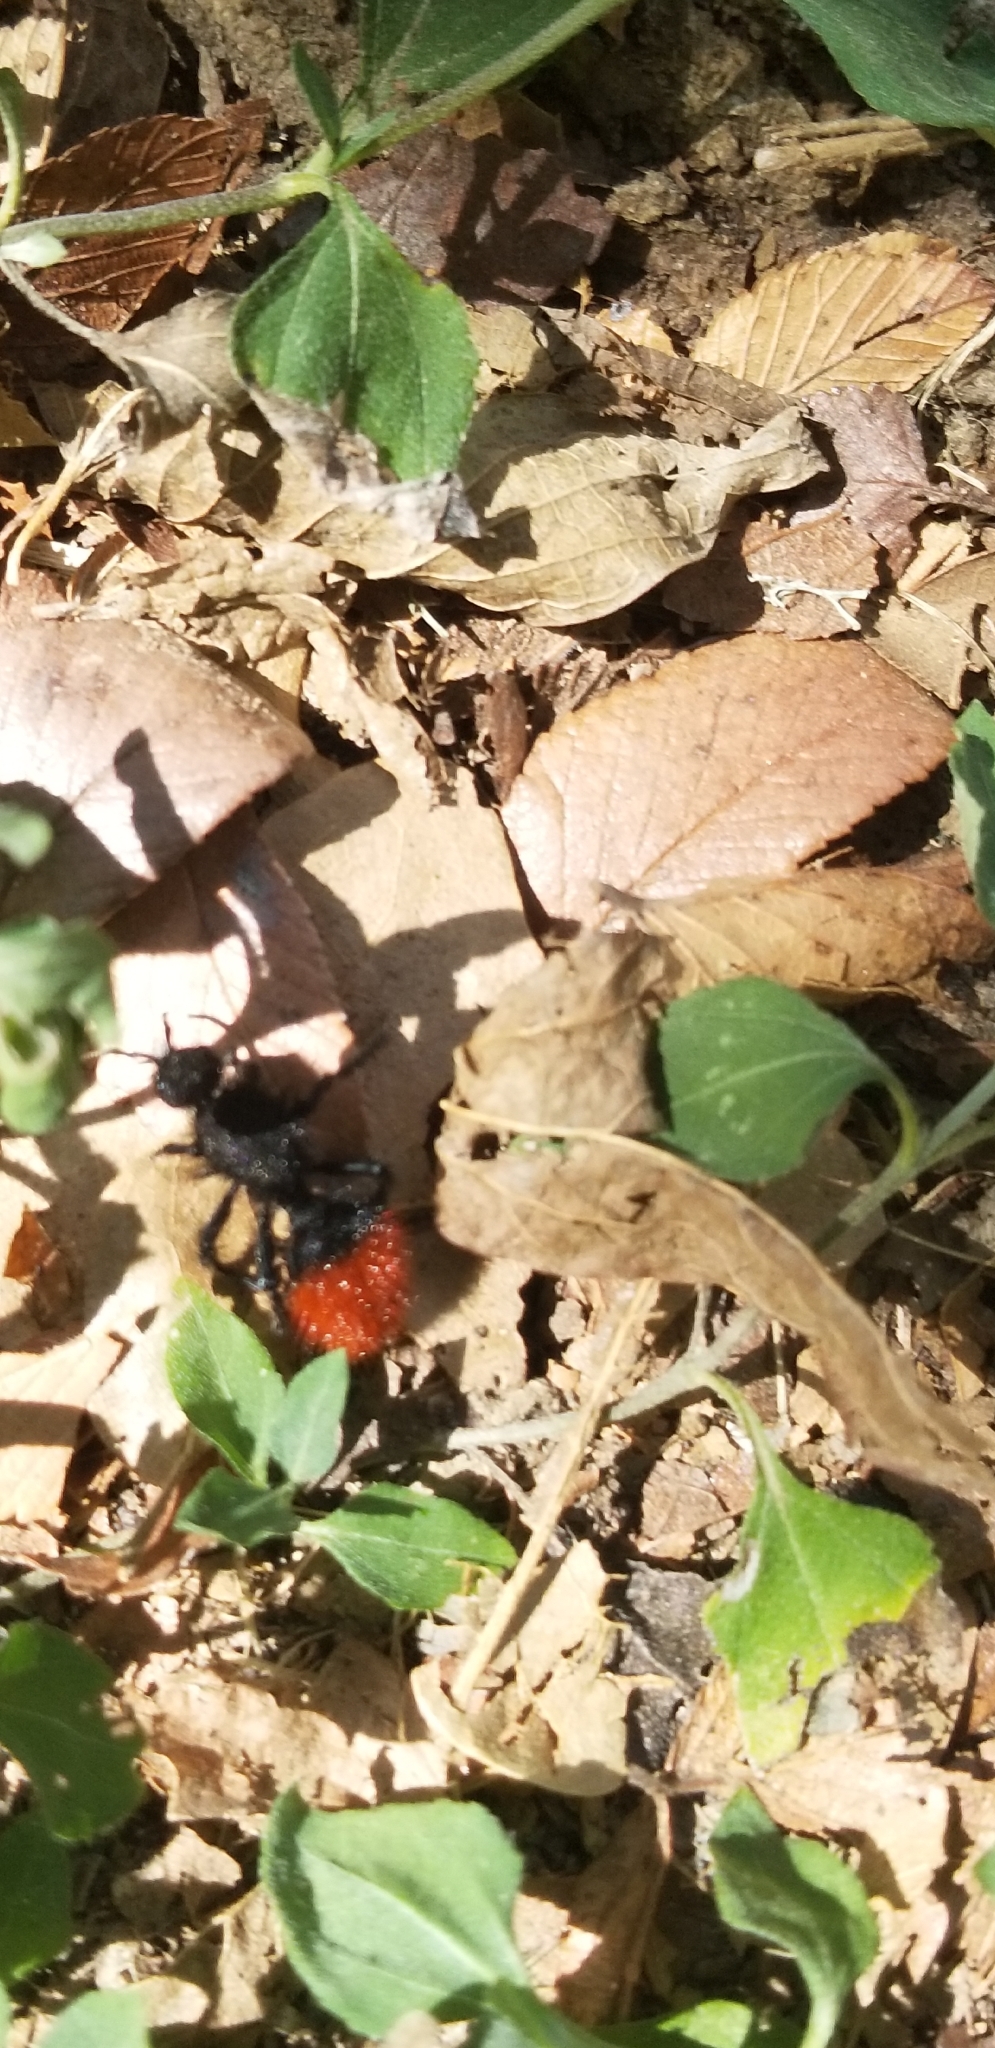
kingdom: Animalia
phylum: Arthropoda
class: Insecta
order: Hymenoptera
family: Mutillidae
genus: Dasymutilla
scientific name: Dasymutilla
